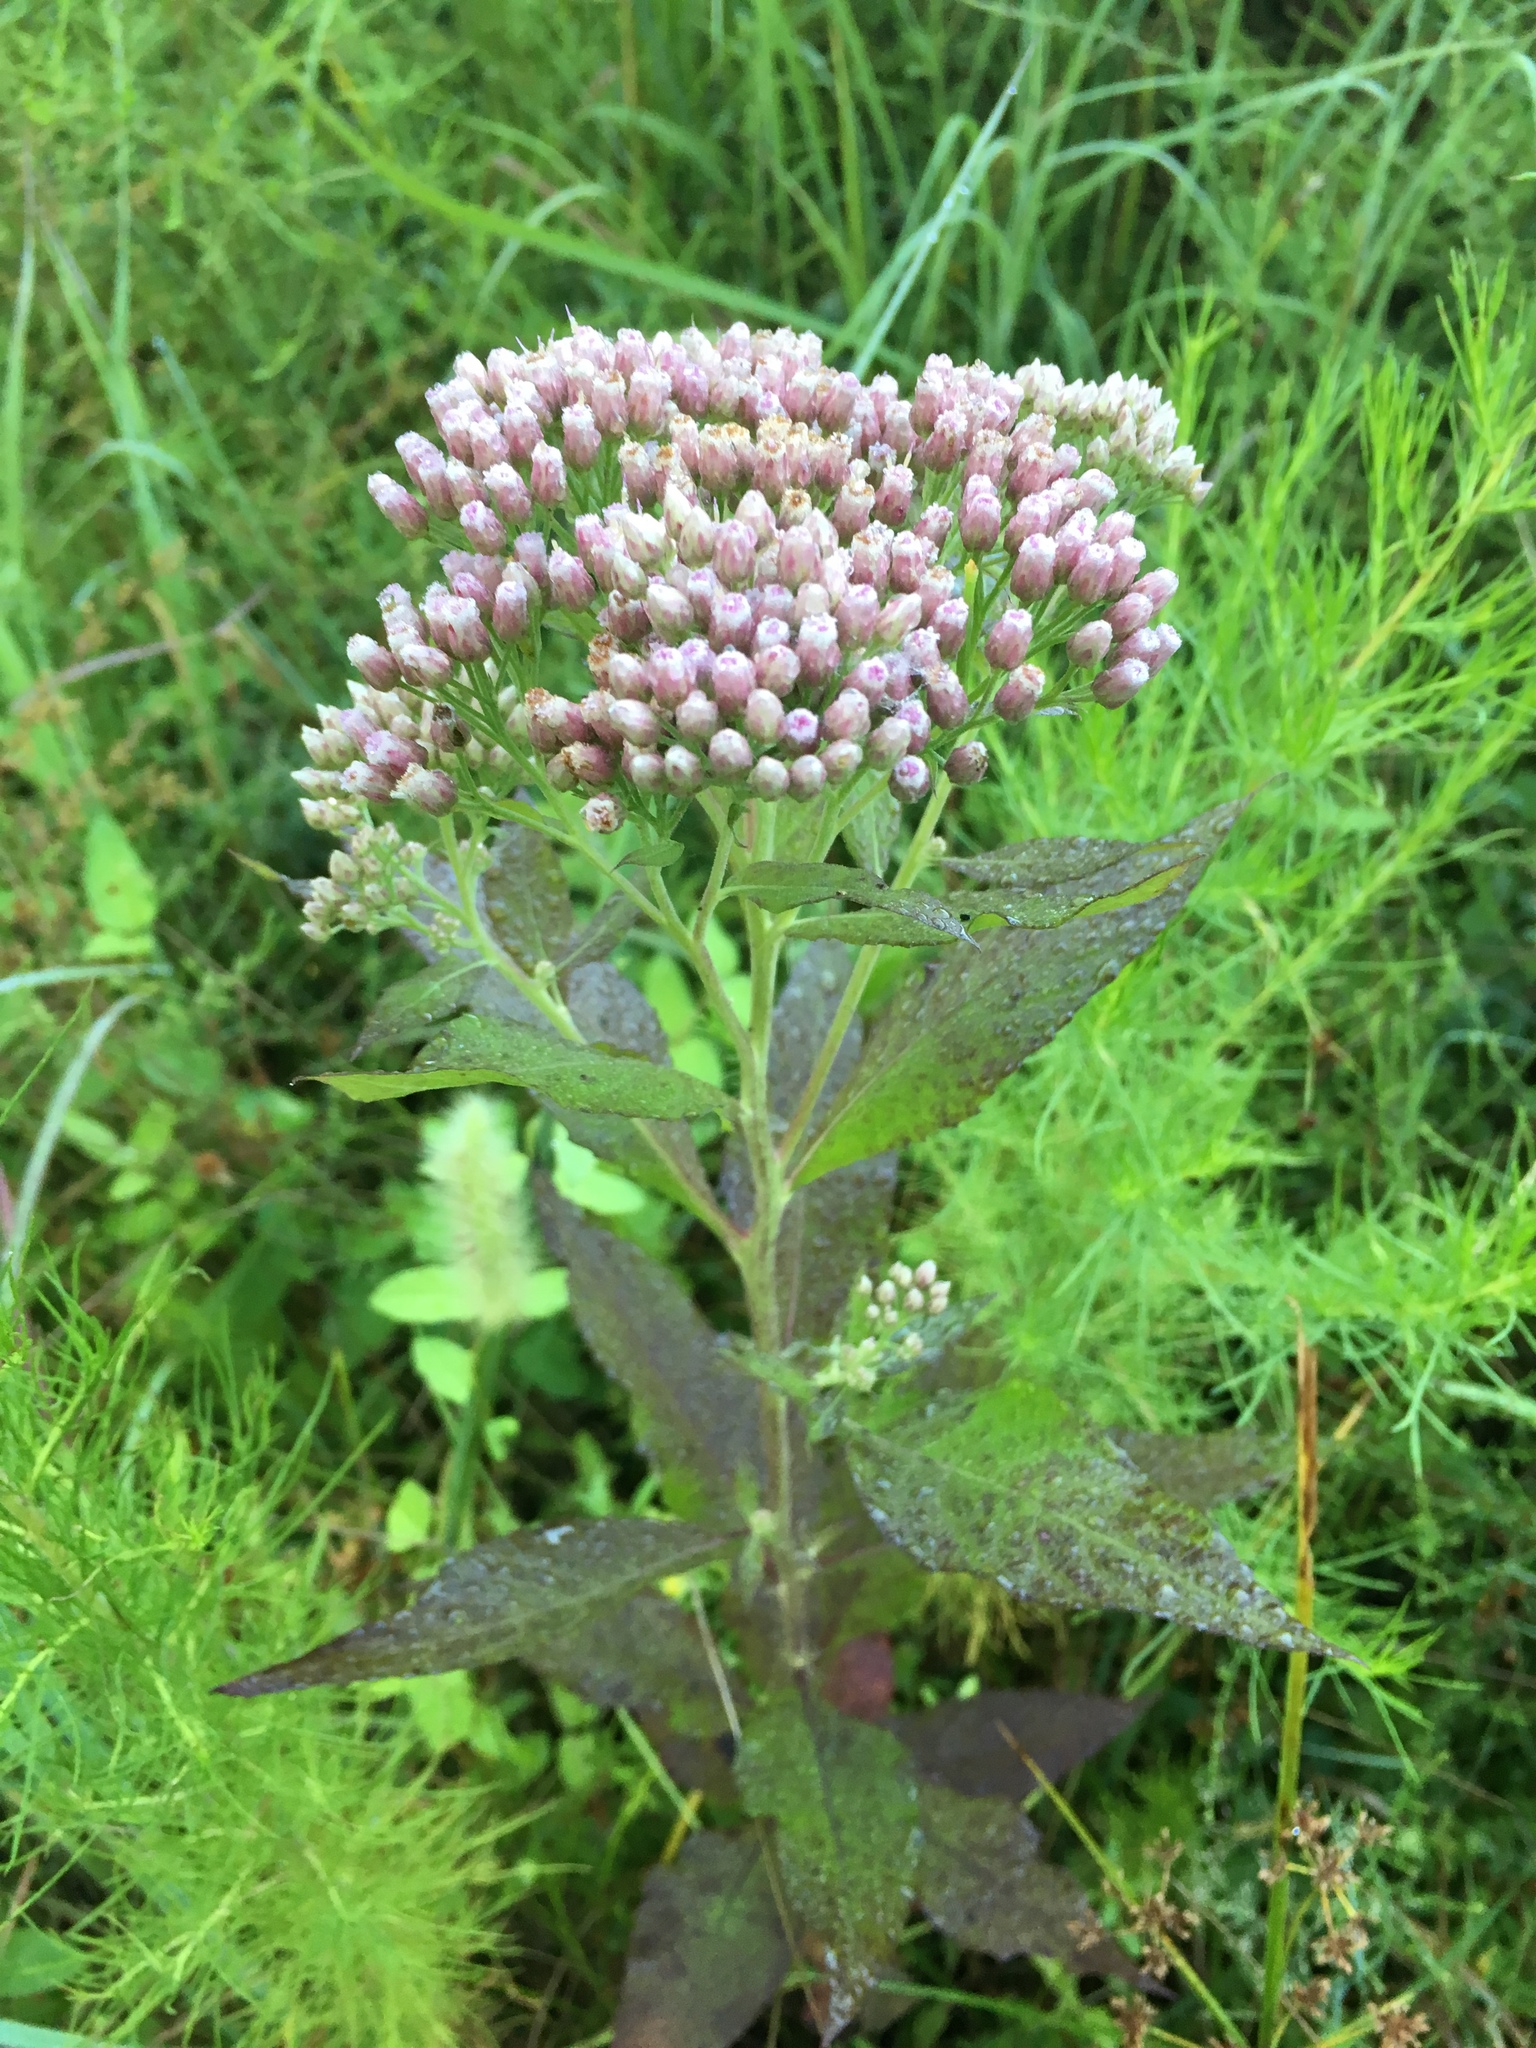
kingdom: Plantae
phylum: Tracheophyta
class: Magnoliopsida
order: Asterales
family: Asteraceae
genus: Pluchea
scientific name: Pluchea camphorata
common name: Camphor pluchea
